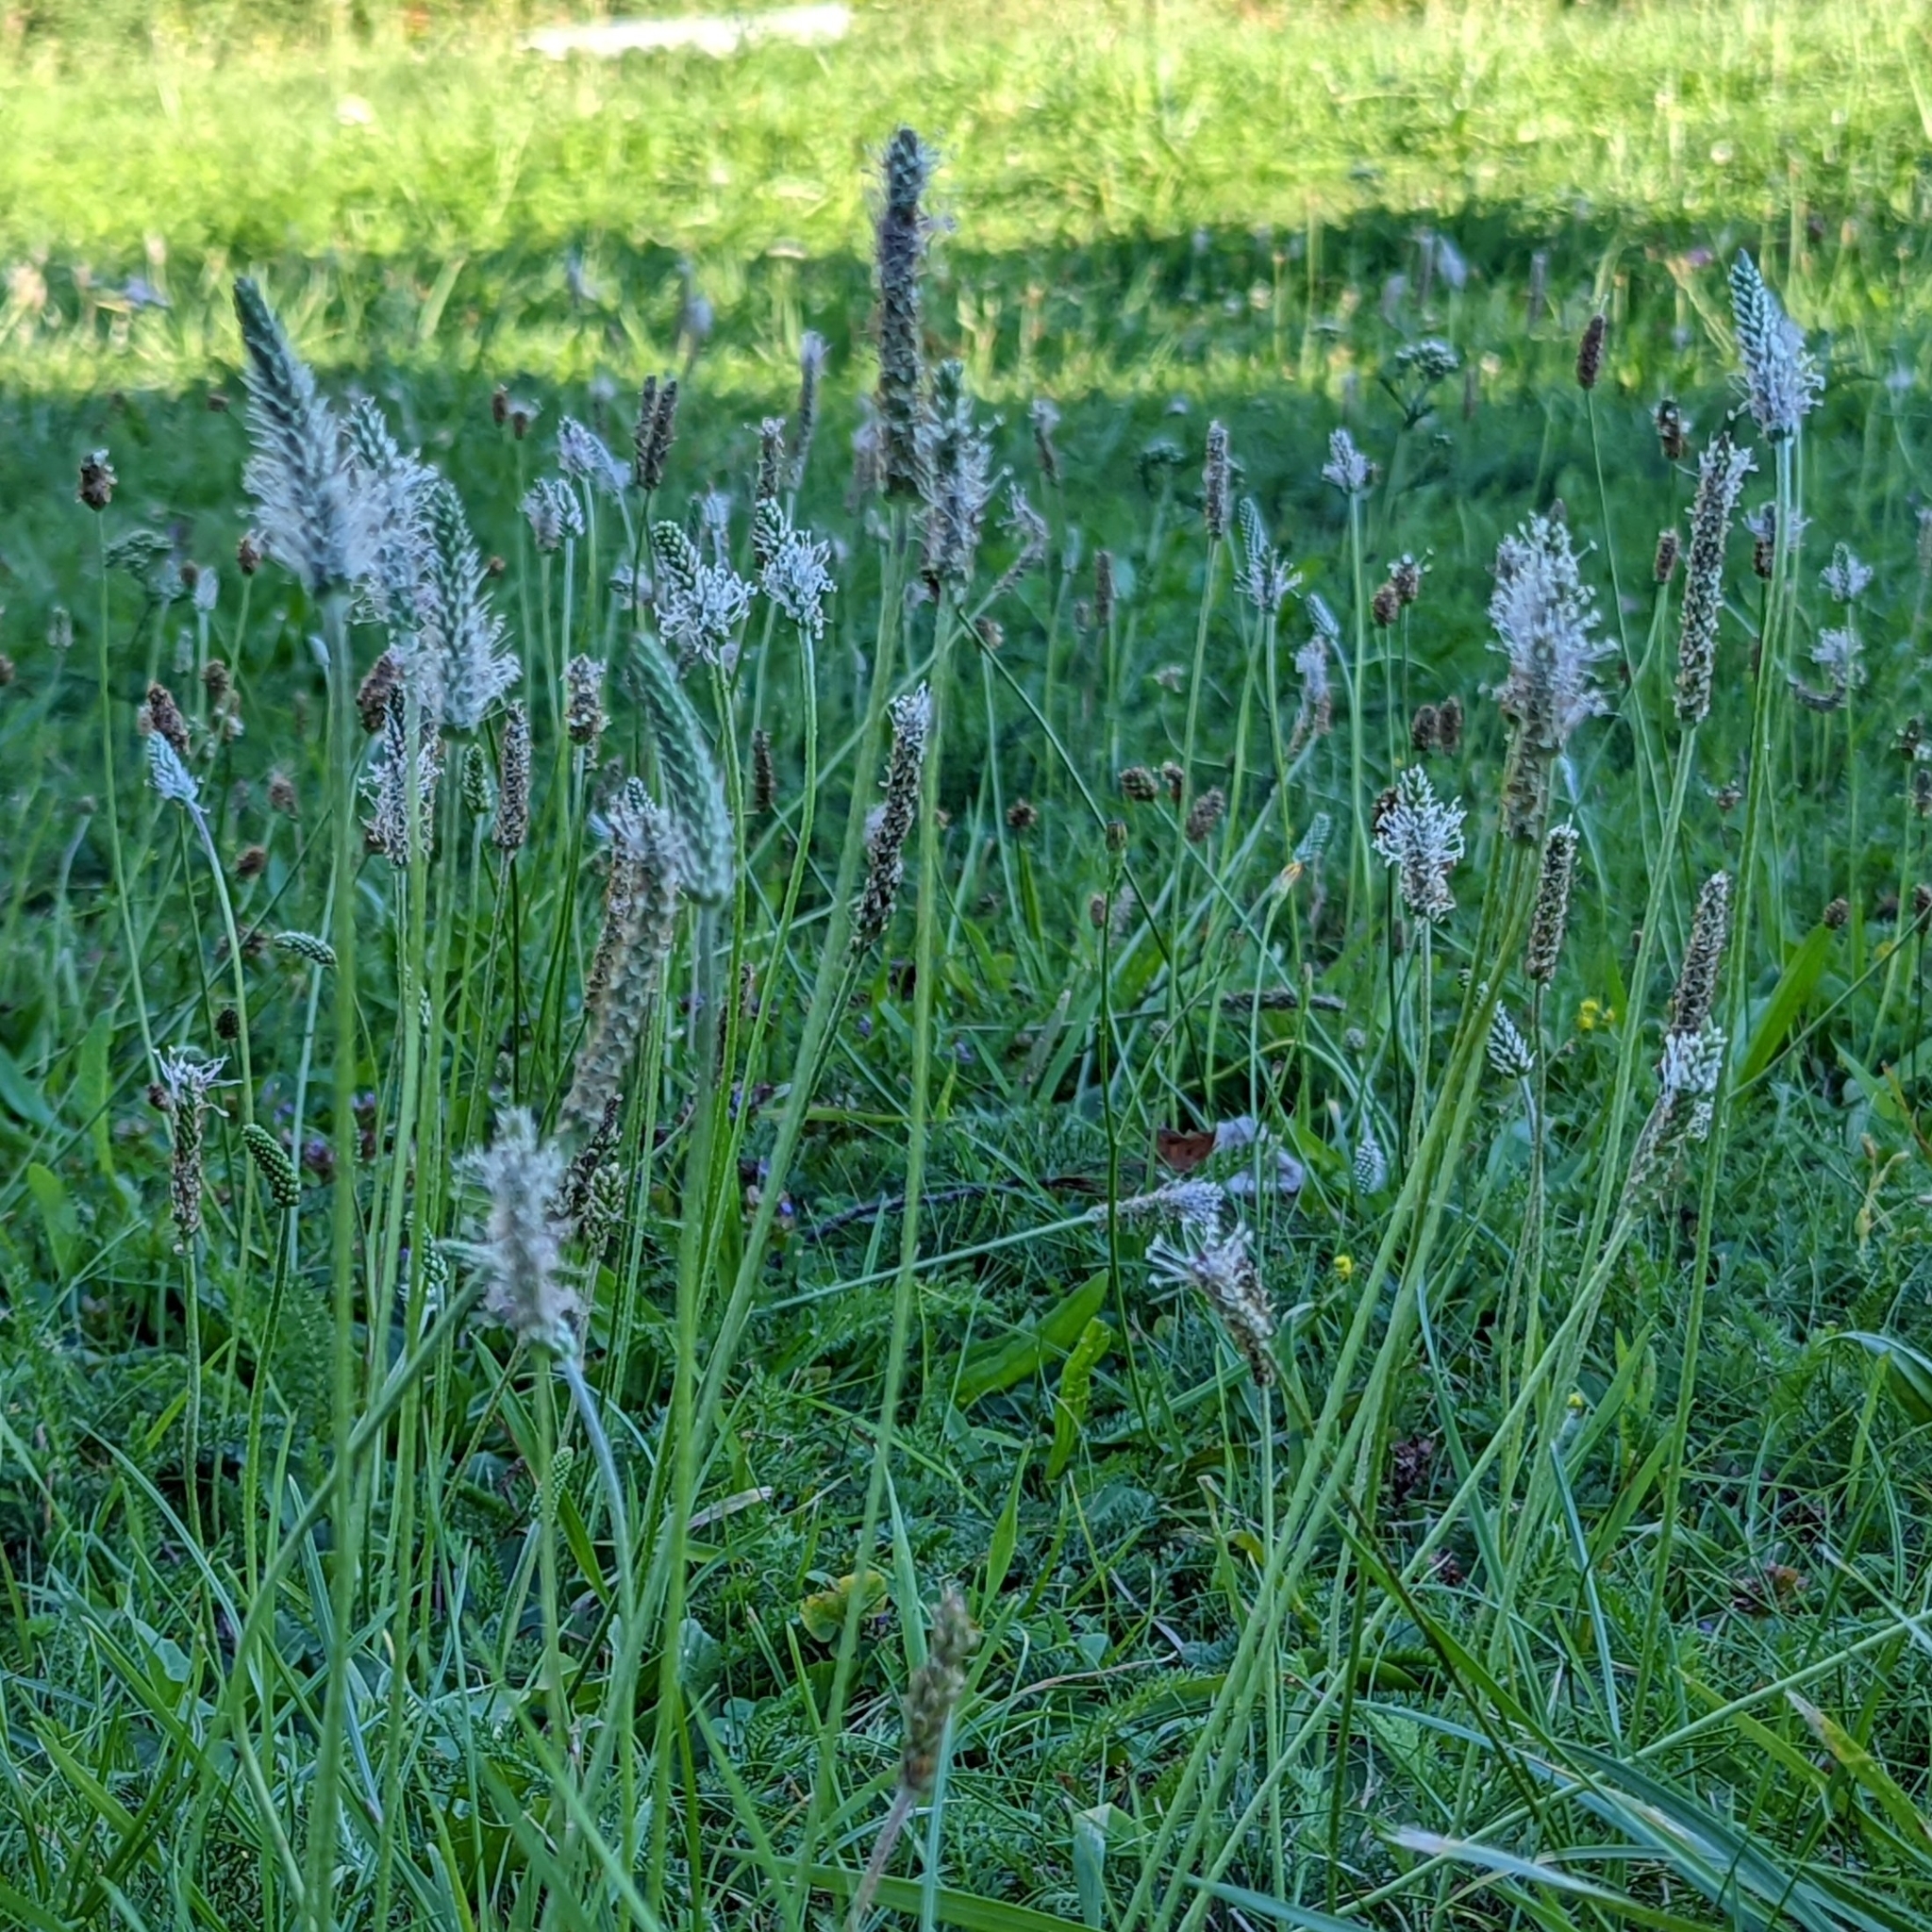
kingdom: Plantae
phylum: Tracheophyta
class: Magnoliopsida
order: Lamiales
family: Plantaginaceae
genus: Plantago
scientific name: Plantago media
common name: Hoary plantain
